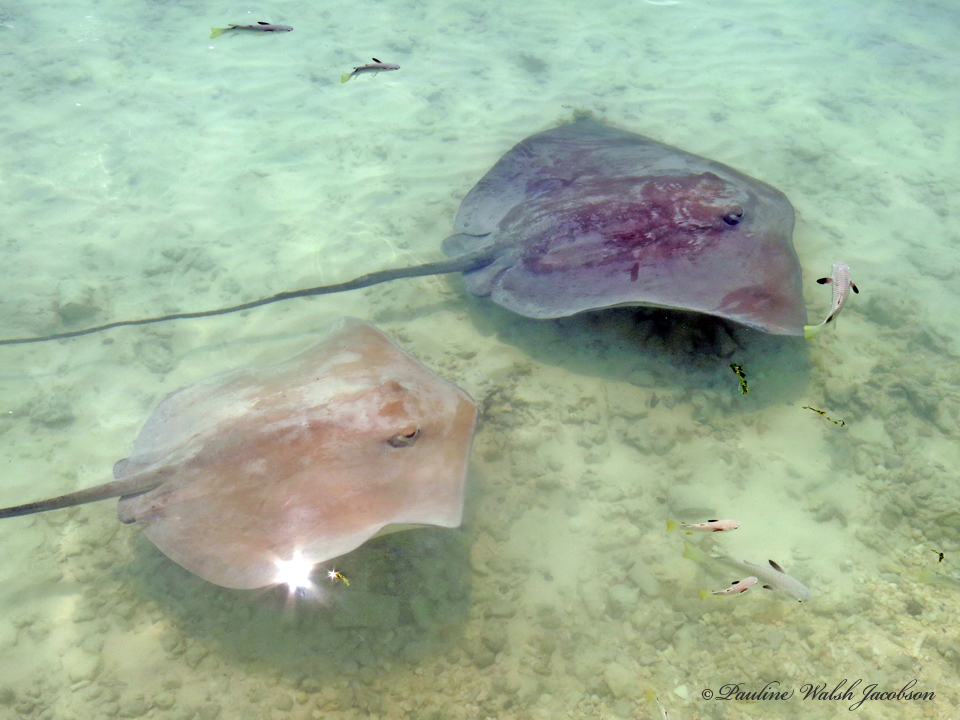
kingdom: Animalia
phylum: Chordata
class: Elasmobranchii
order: Myliobatiformes
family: Dasyatidae
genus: Pateobatis
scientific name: Pateobatis fai
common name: Pink whipray
